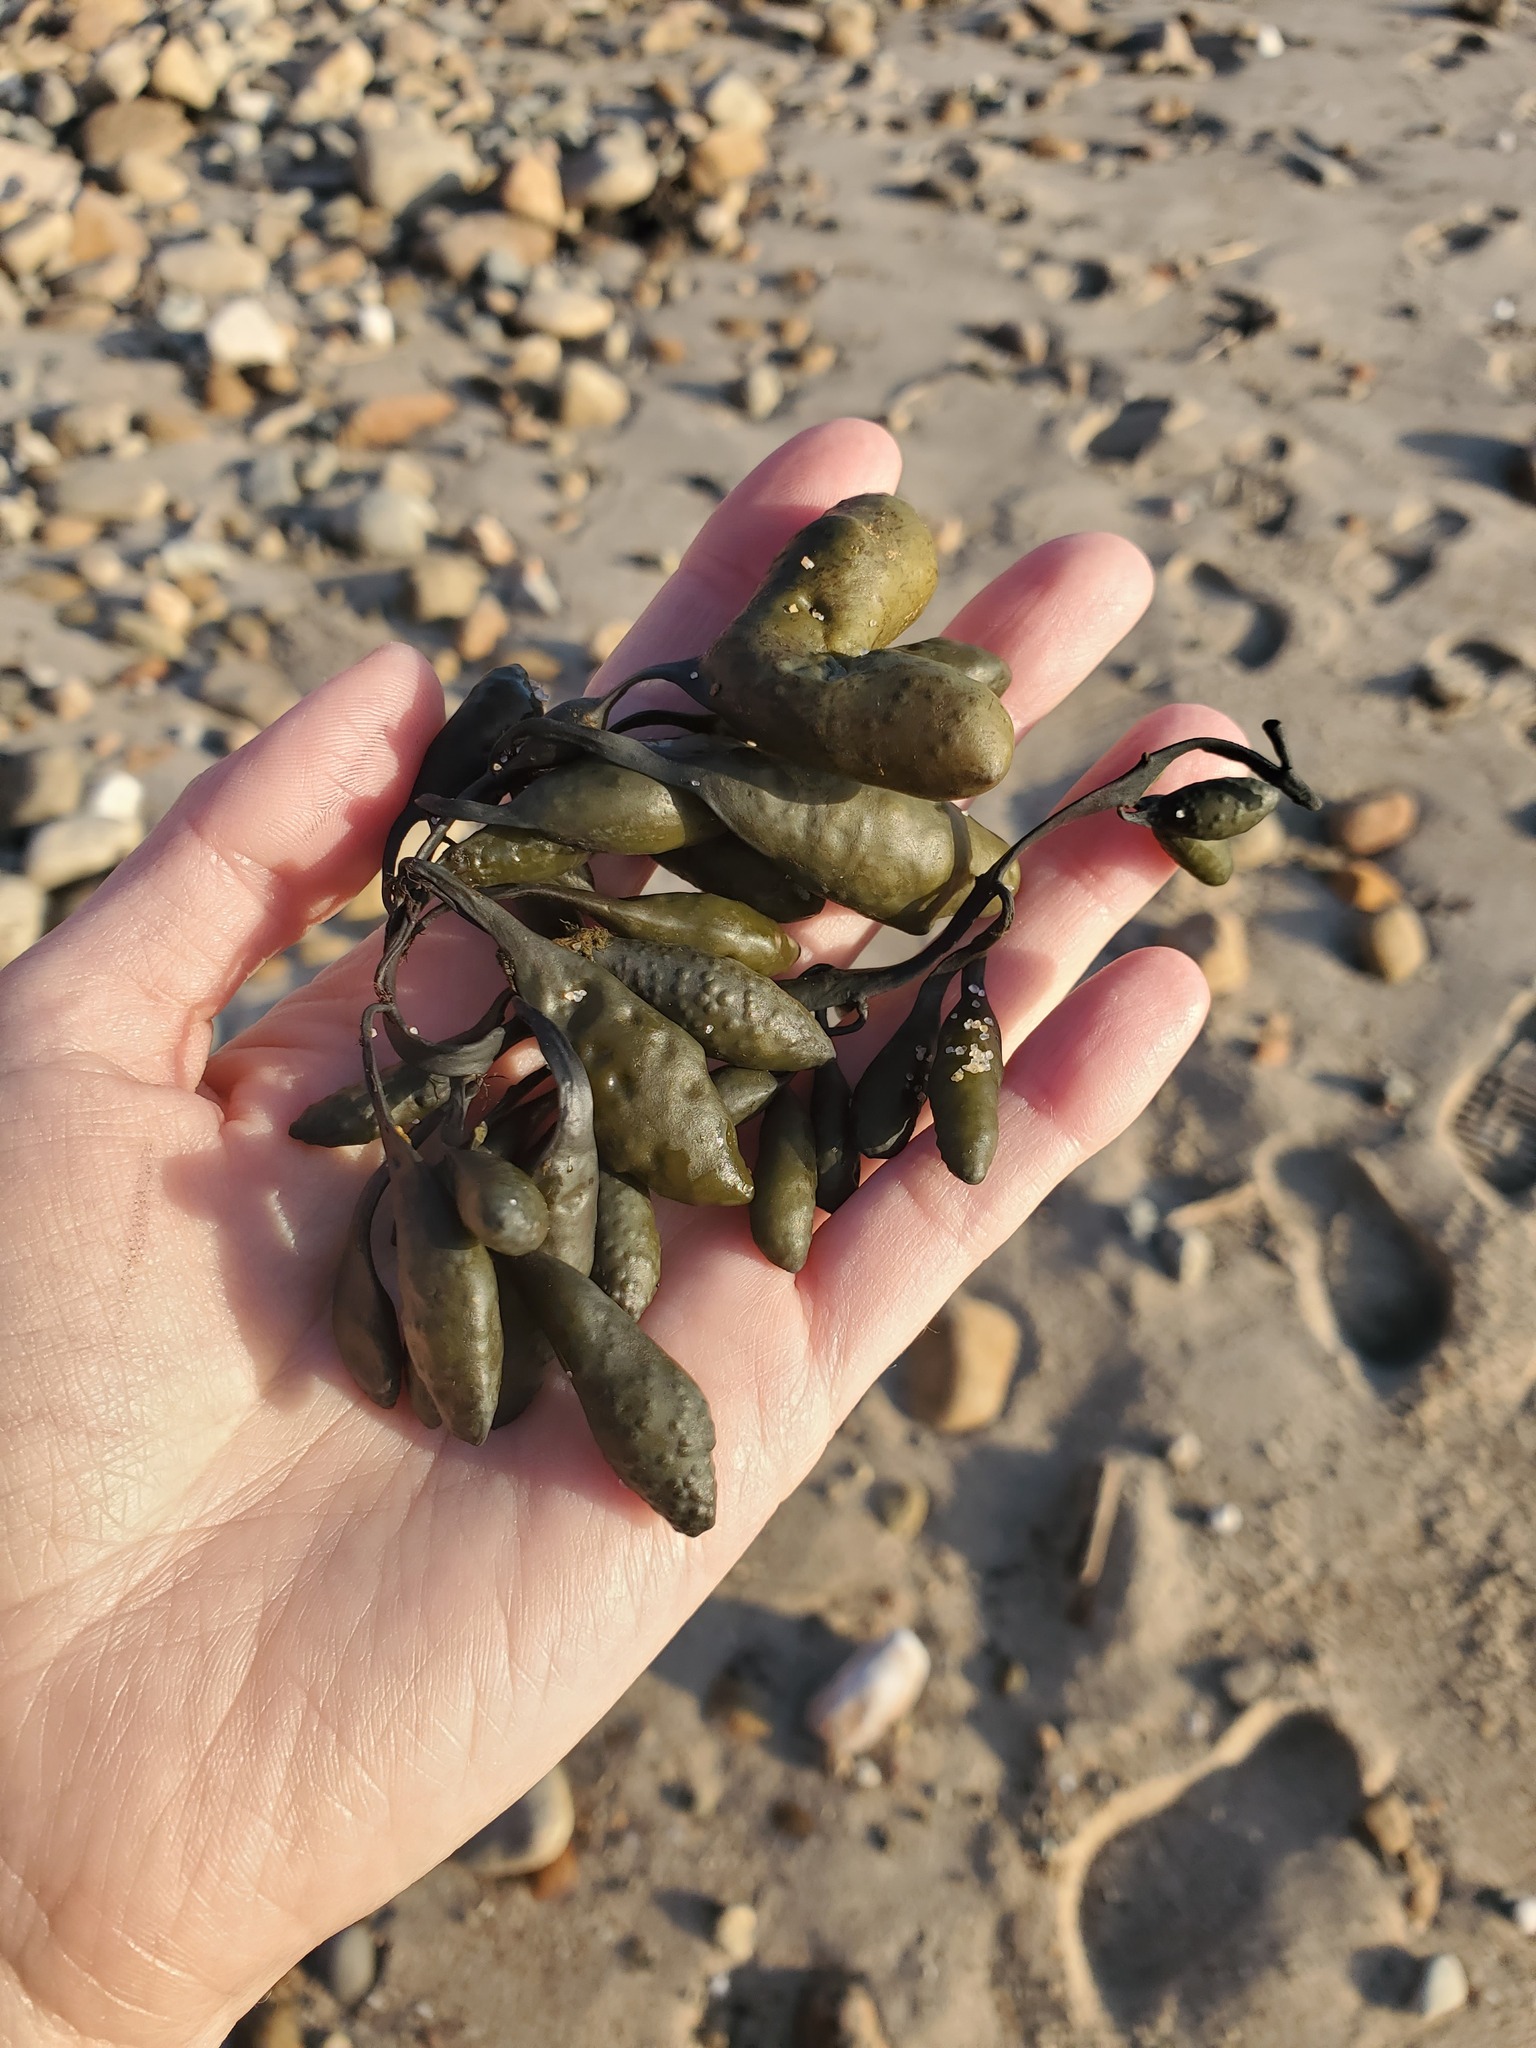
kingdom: Chromista
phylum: Ochrophyta
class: Phaeophyceae
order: Fucales
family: Fucaceae
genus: Ascophyllum
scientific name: Ascophyllum nodosum
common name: Knotted wrack
